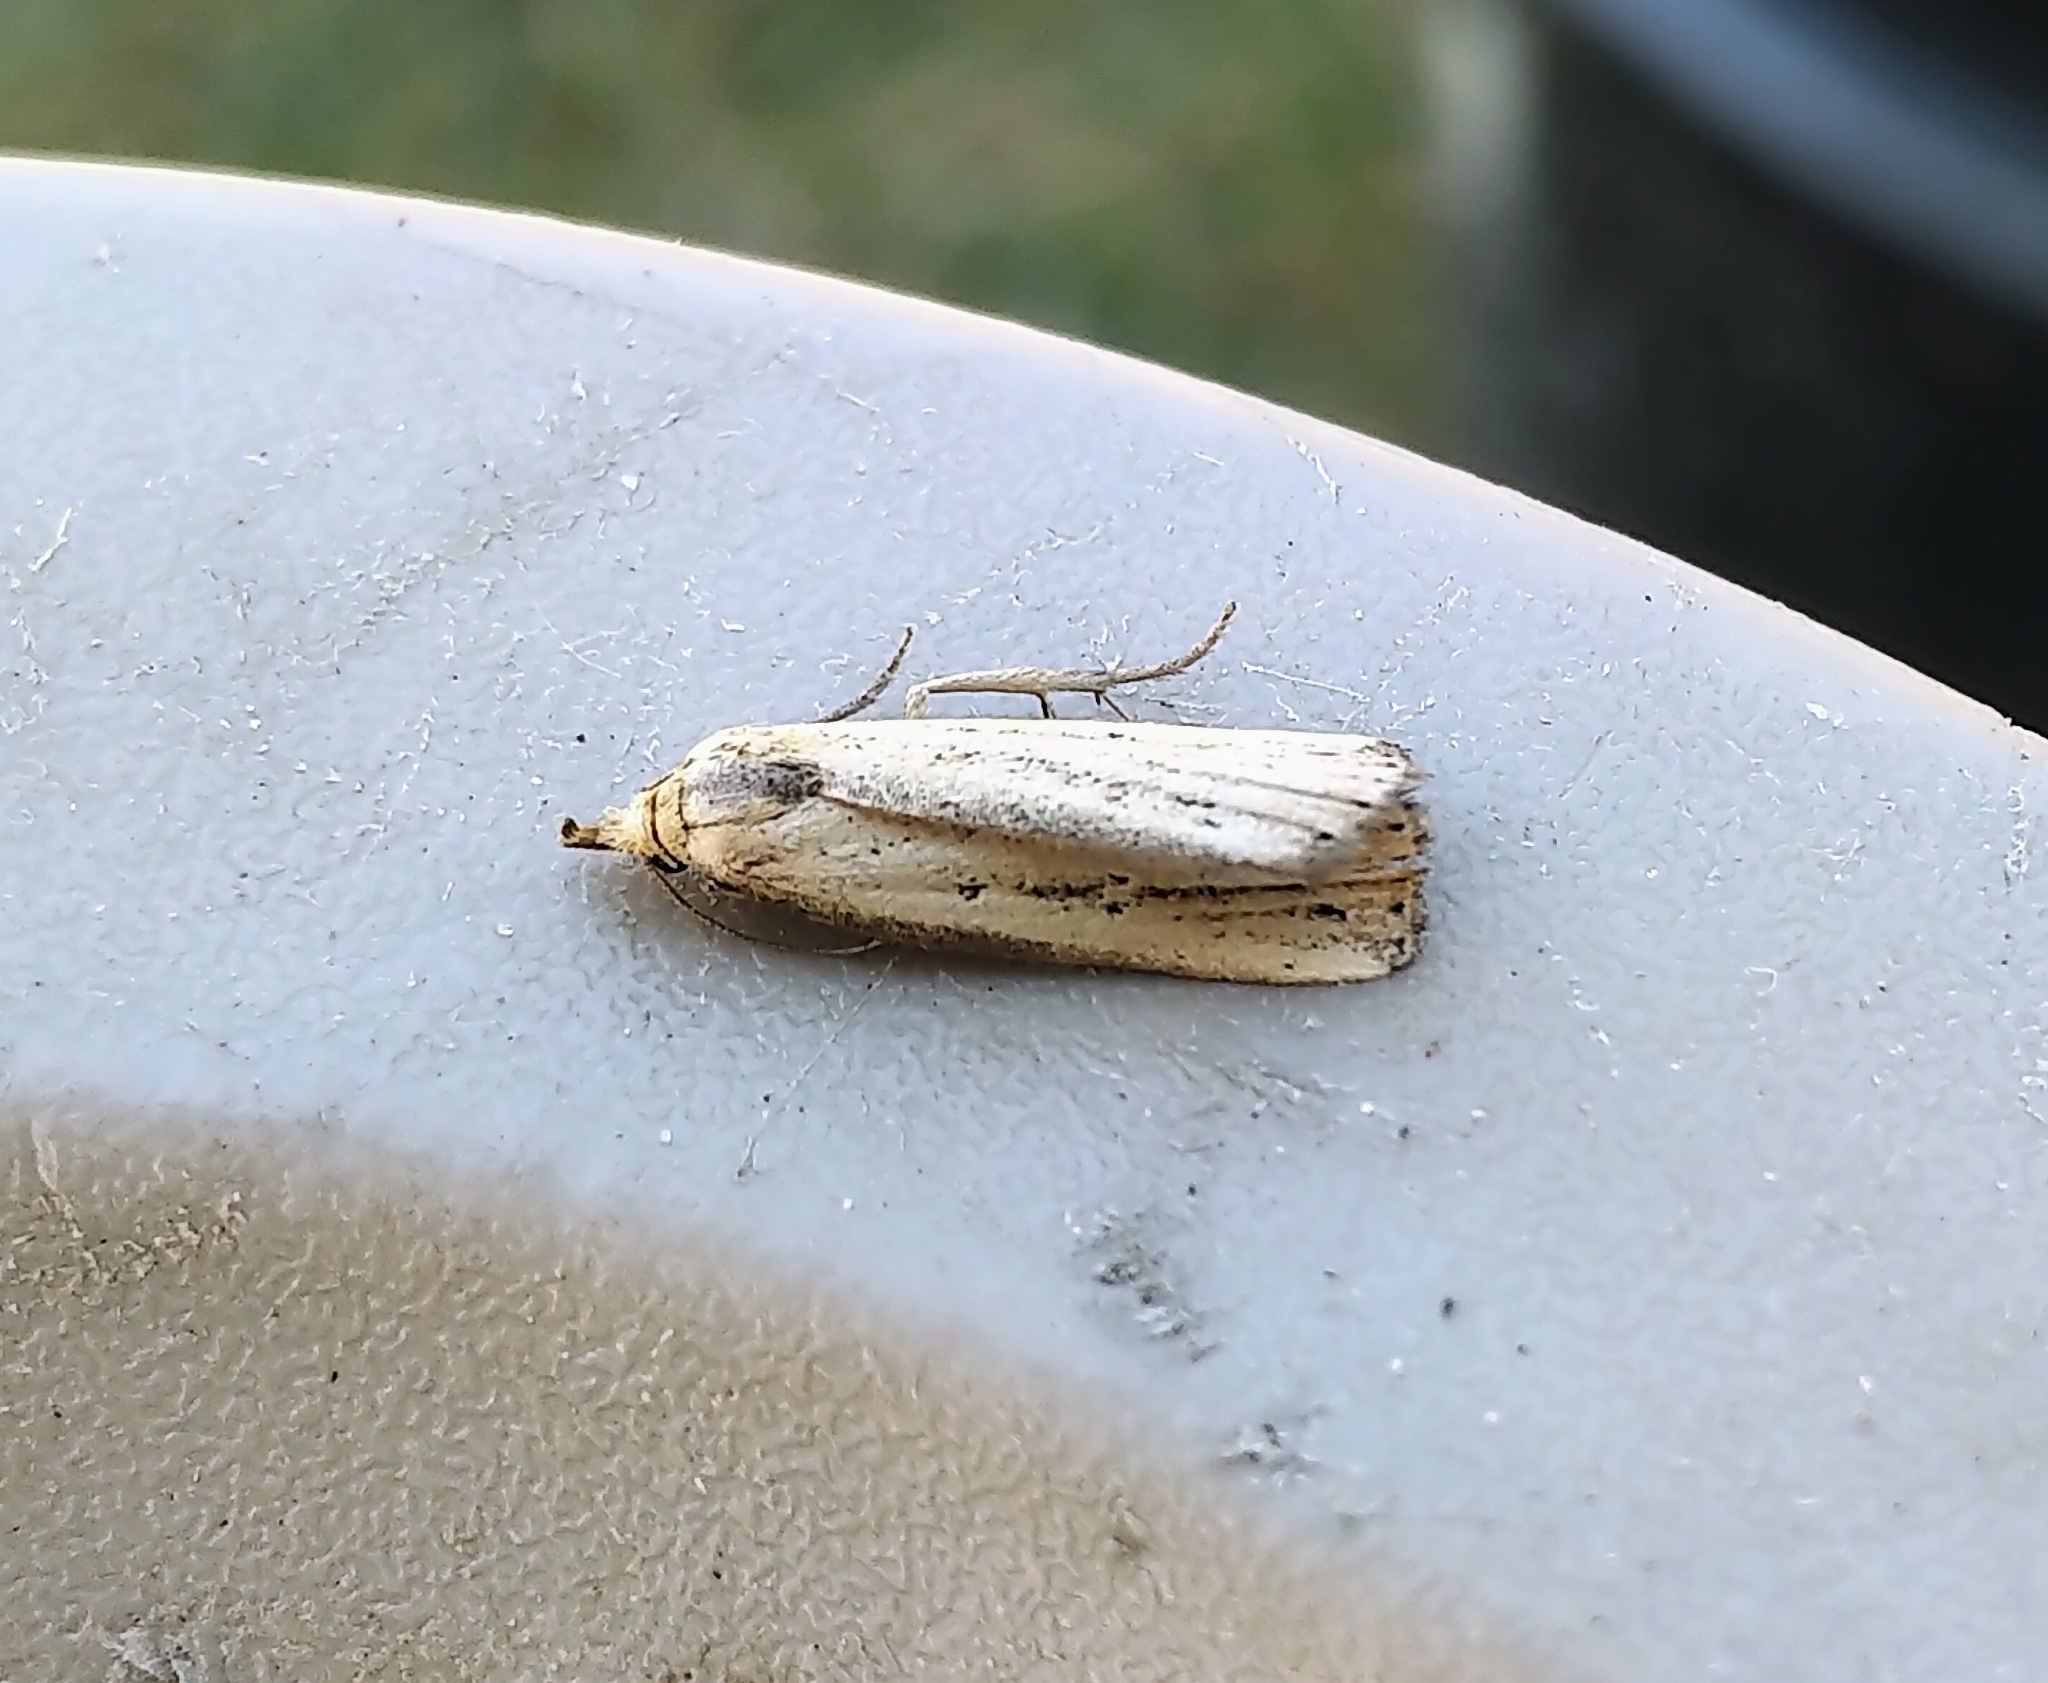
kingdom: Animalia
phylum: Arthropoda
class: Insecta
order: Lepidoptera
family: Erebidae
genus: Macrochilo
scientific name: Macrochilo orciferalis
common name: Bronzy owlet
